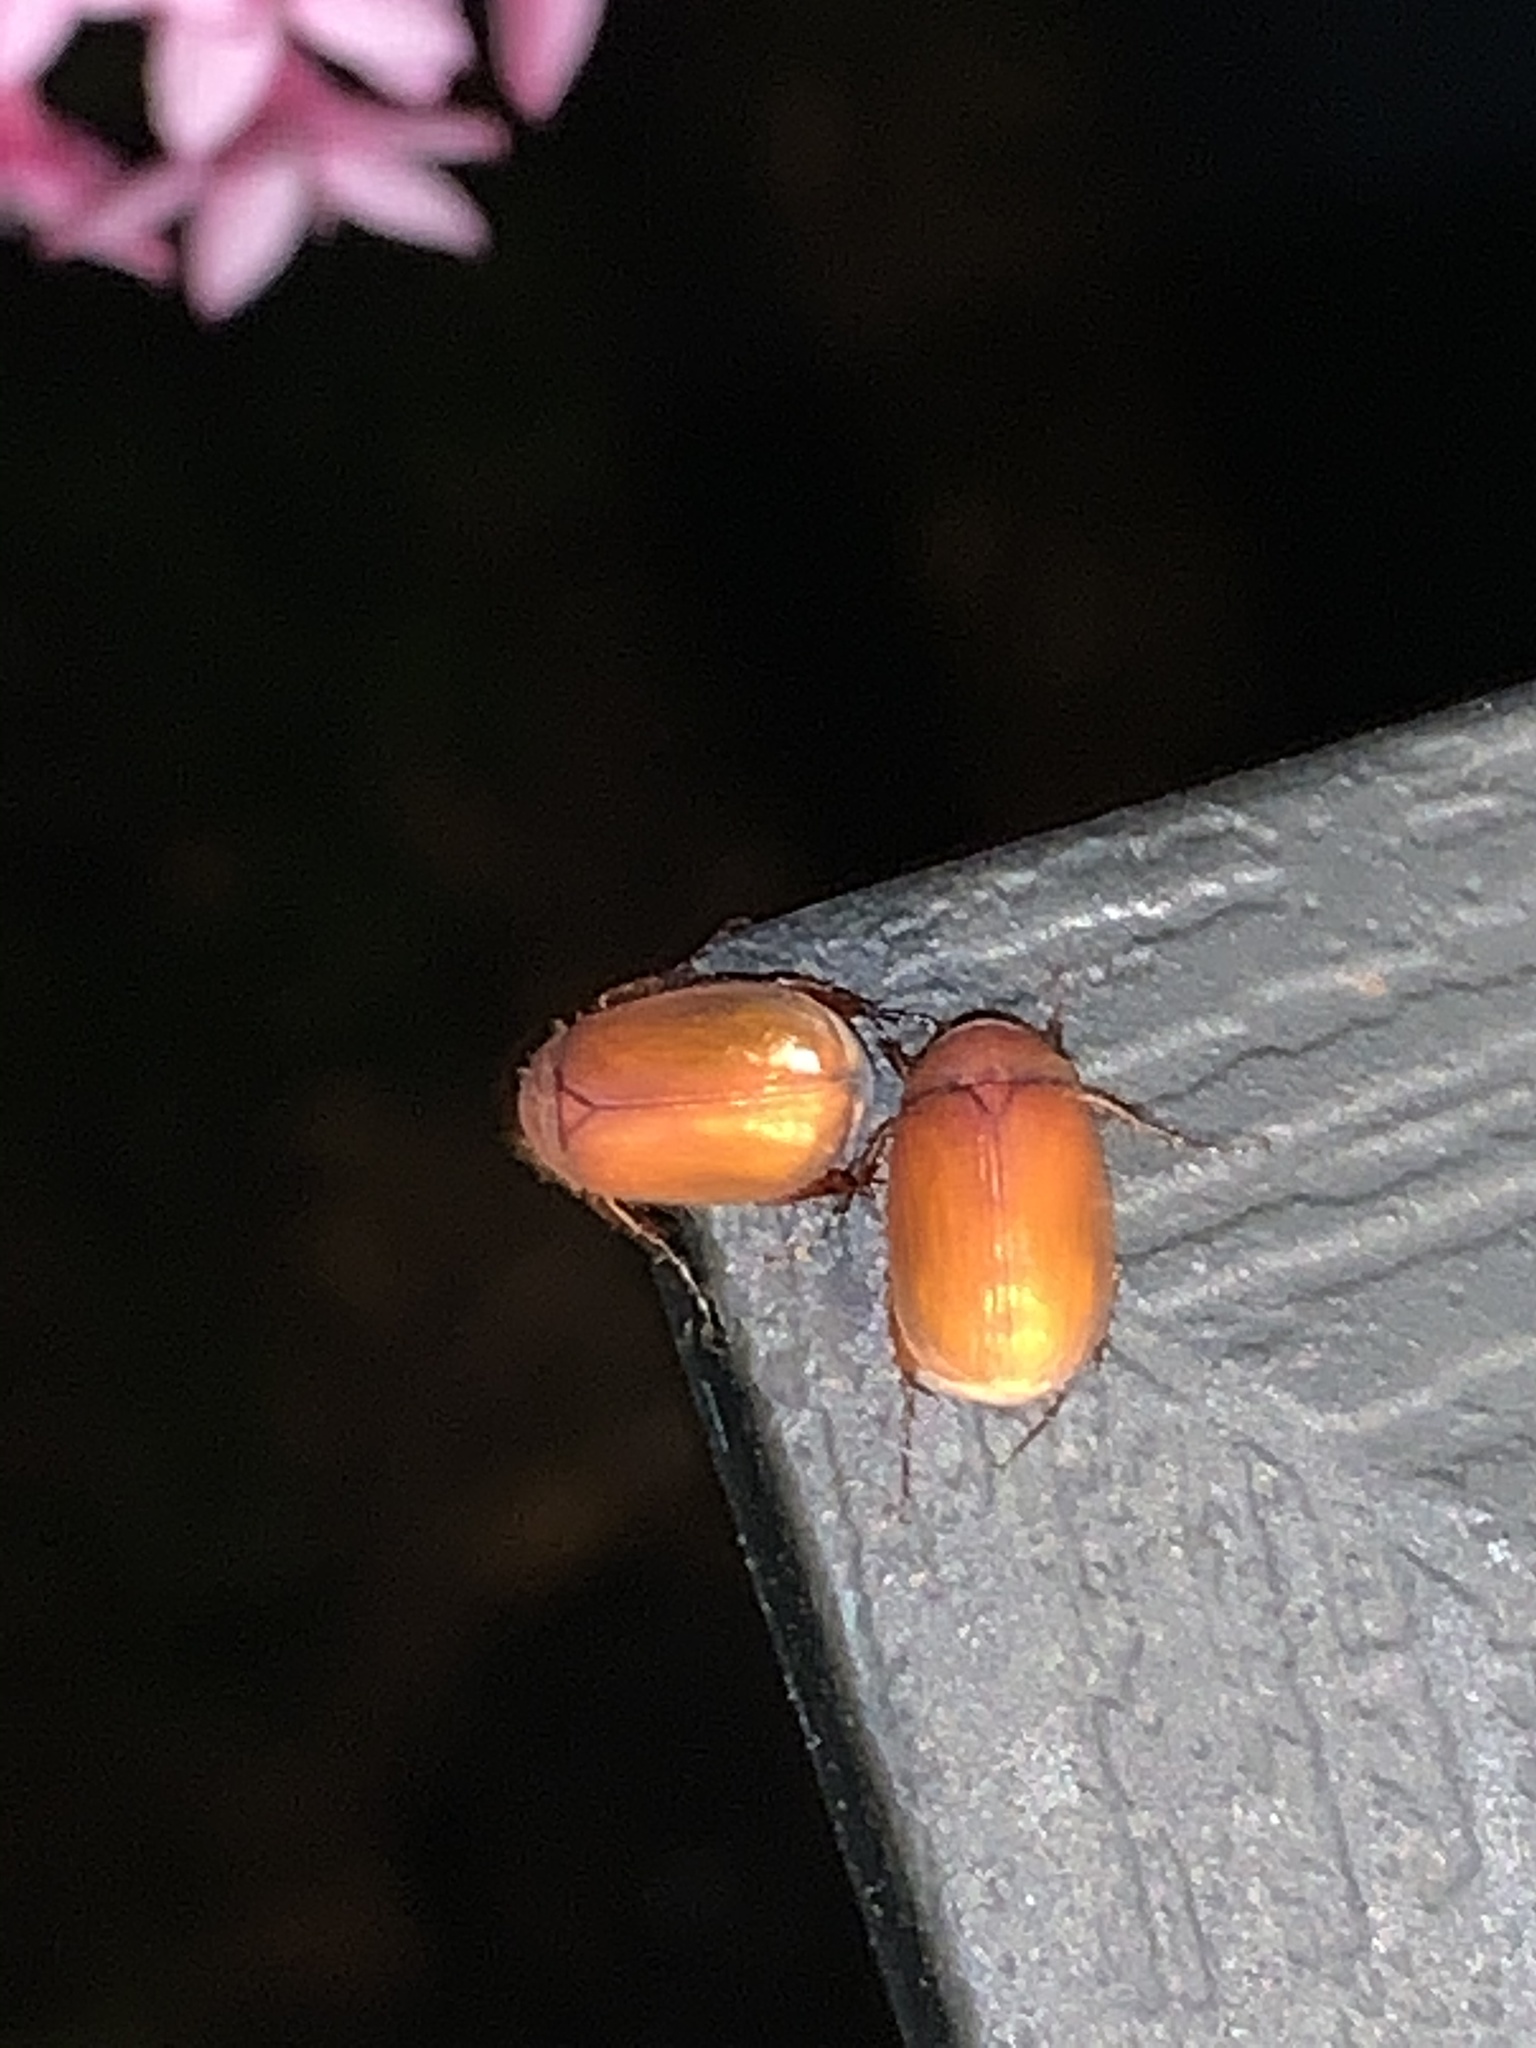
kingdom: Animalia
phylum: Arthropoda
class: Insecta
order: Coleoptera
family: Scarabaeidae
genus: Maladera
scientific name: Maladera formosae
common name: Asiatic garden beetle
